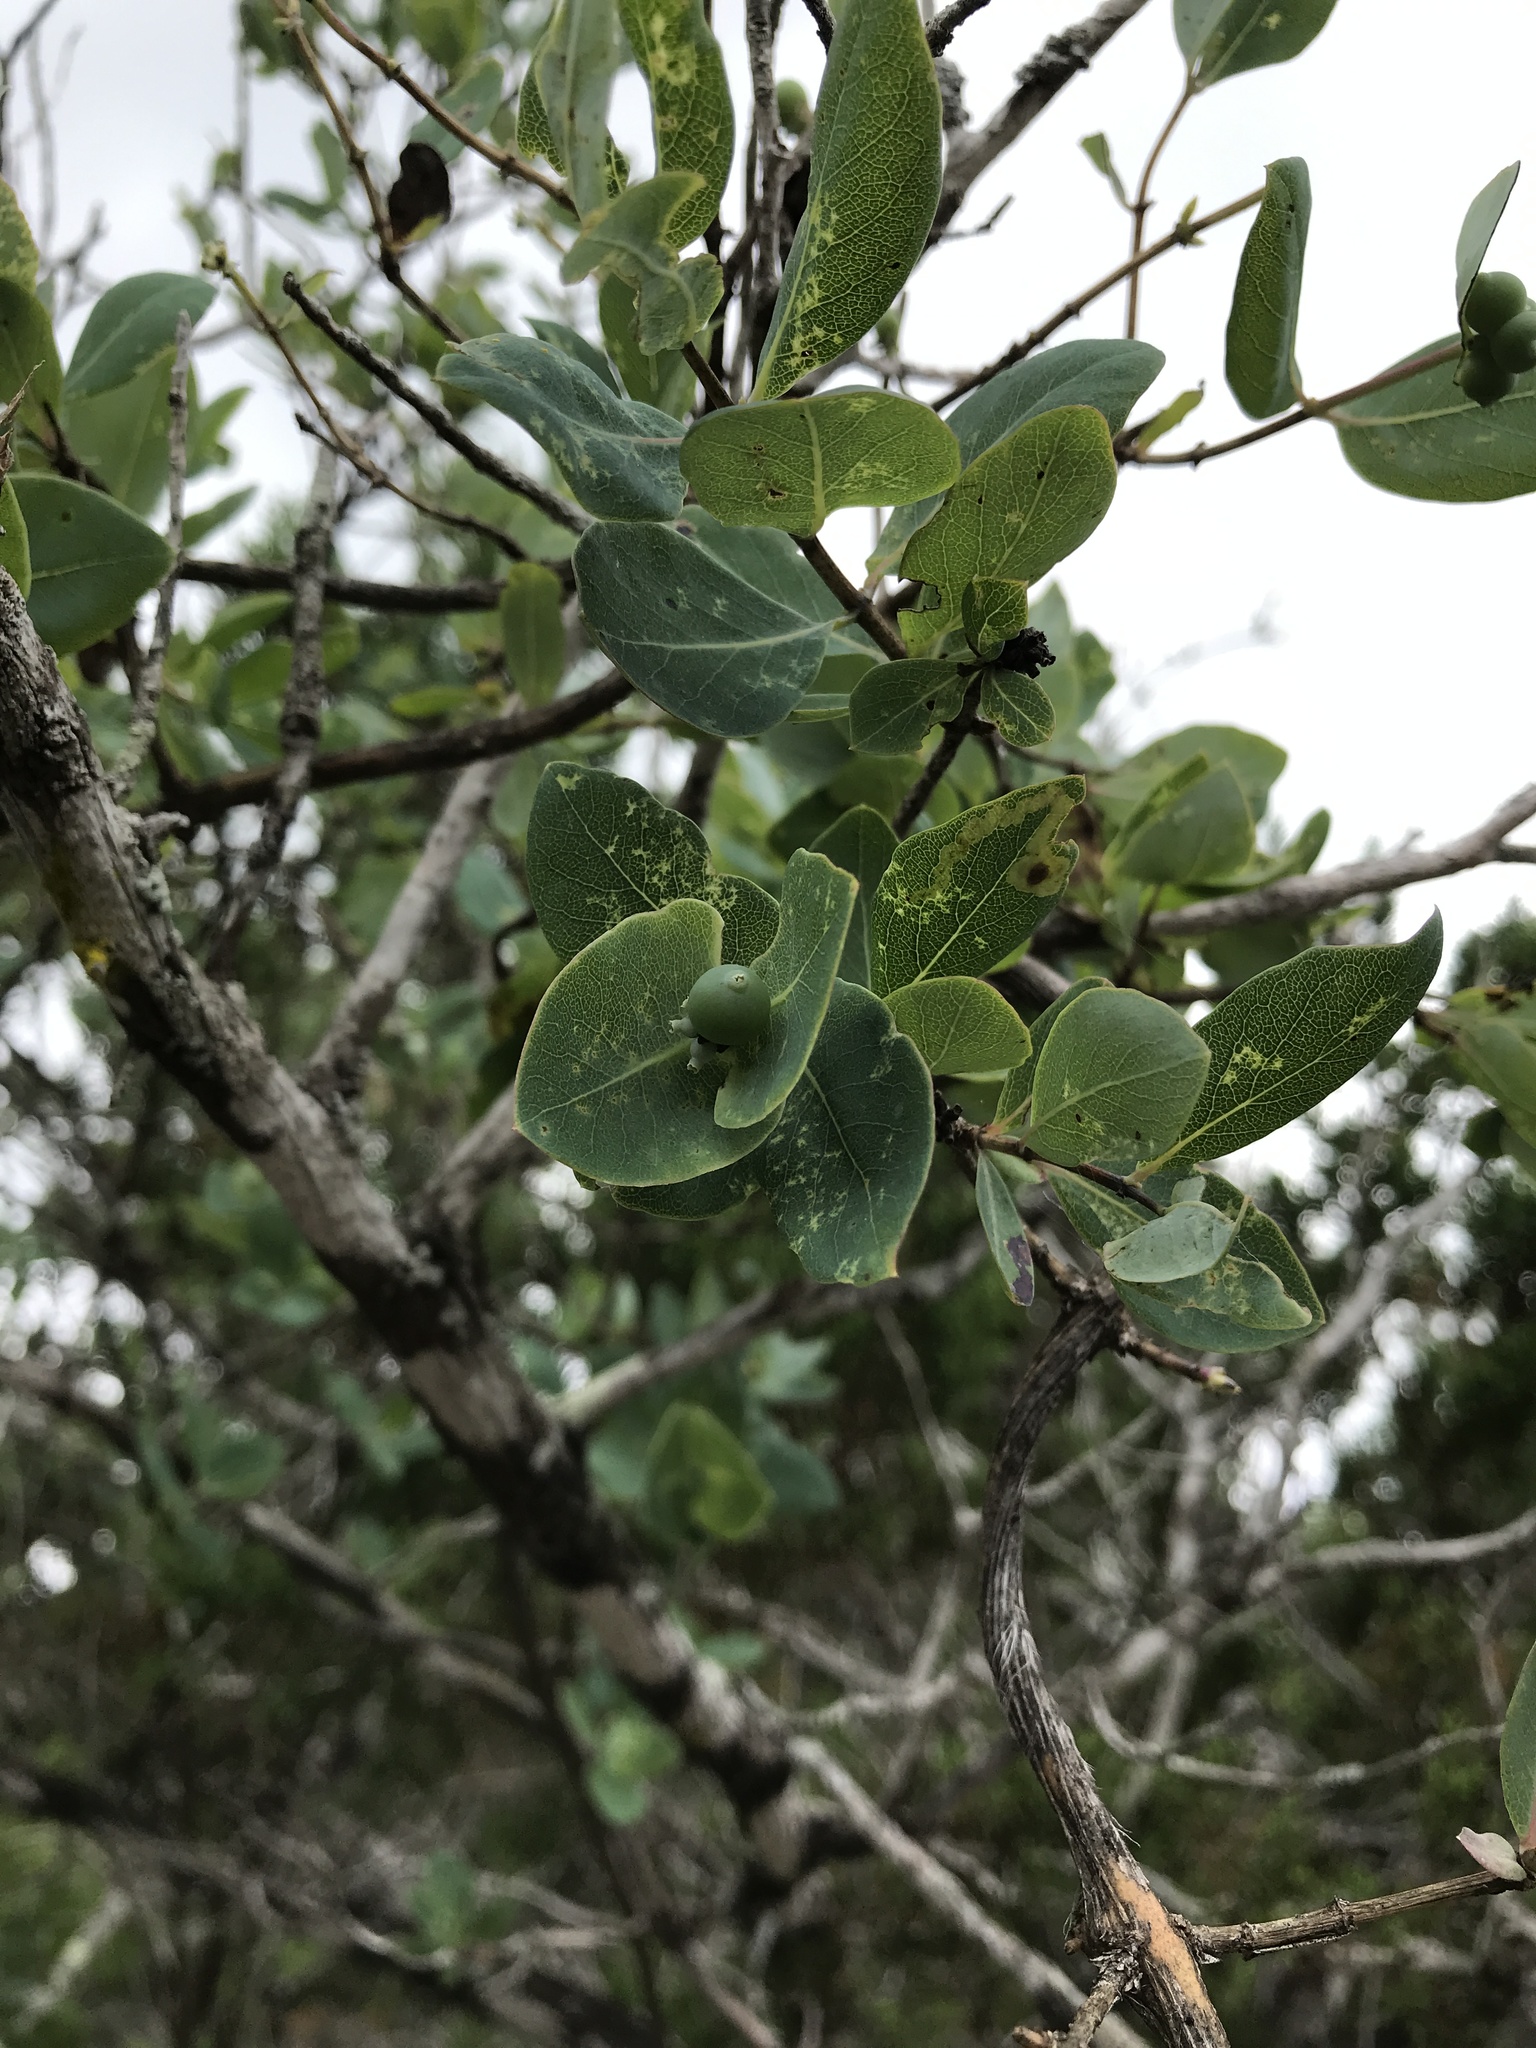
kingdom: Plantae
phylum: Tracheophyta
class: Magnoliopsida
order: Dipsacales
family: Caprifoliaceae
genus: Lonicera
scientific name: Lonicera albiflora
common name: White honeysuckle
